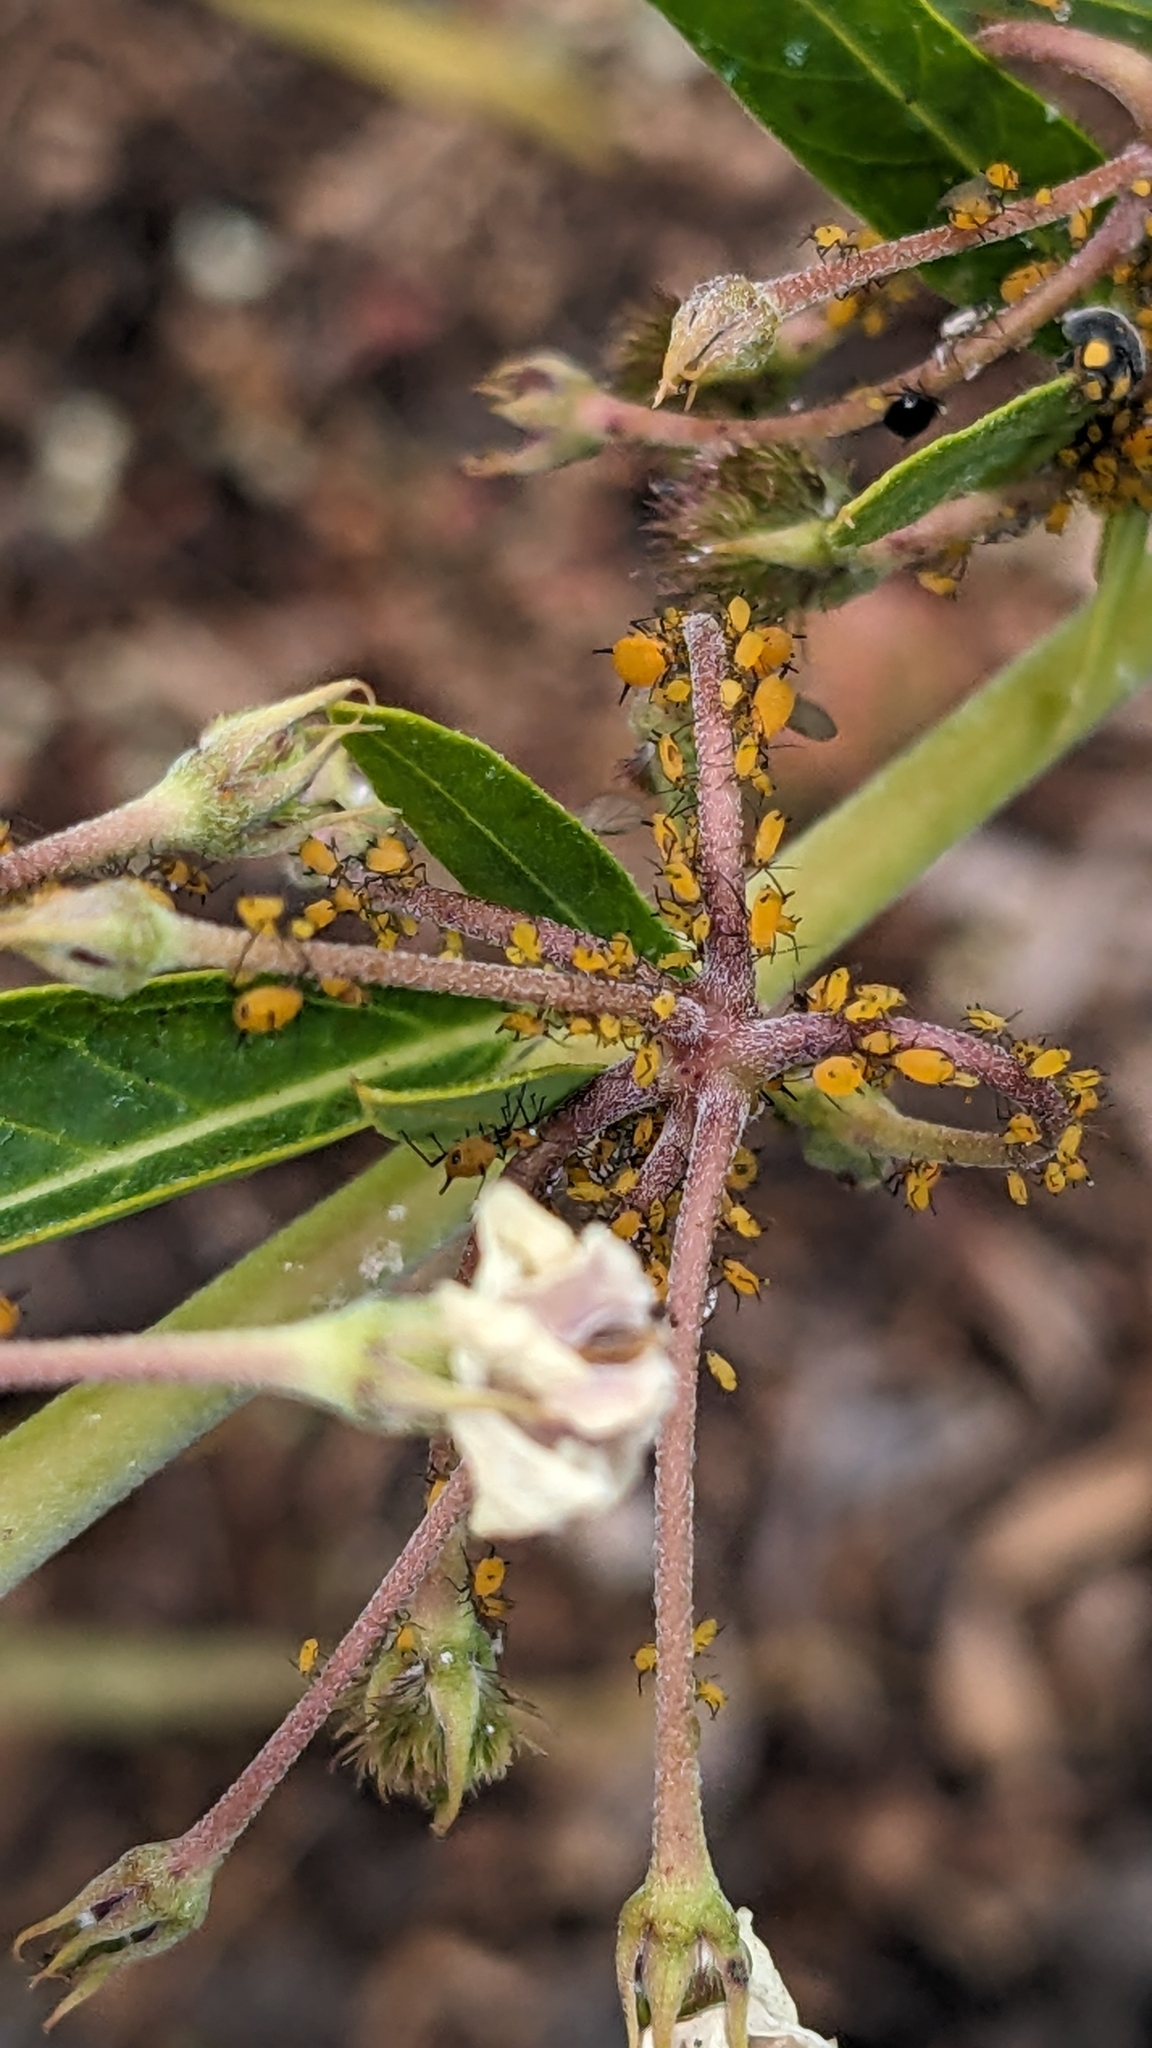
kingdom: Animalia
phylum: Arthropoda
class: Insecta
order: Hemiptera
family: Aphididae
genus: Aphis
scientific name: Aphis nerii
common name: Oleander aphid
